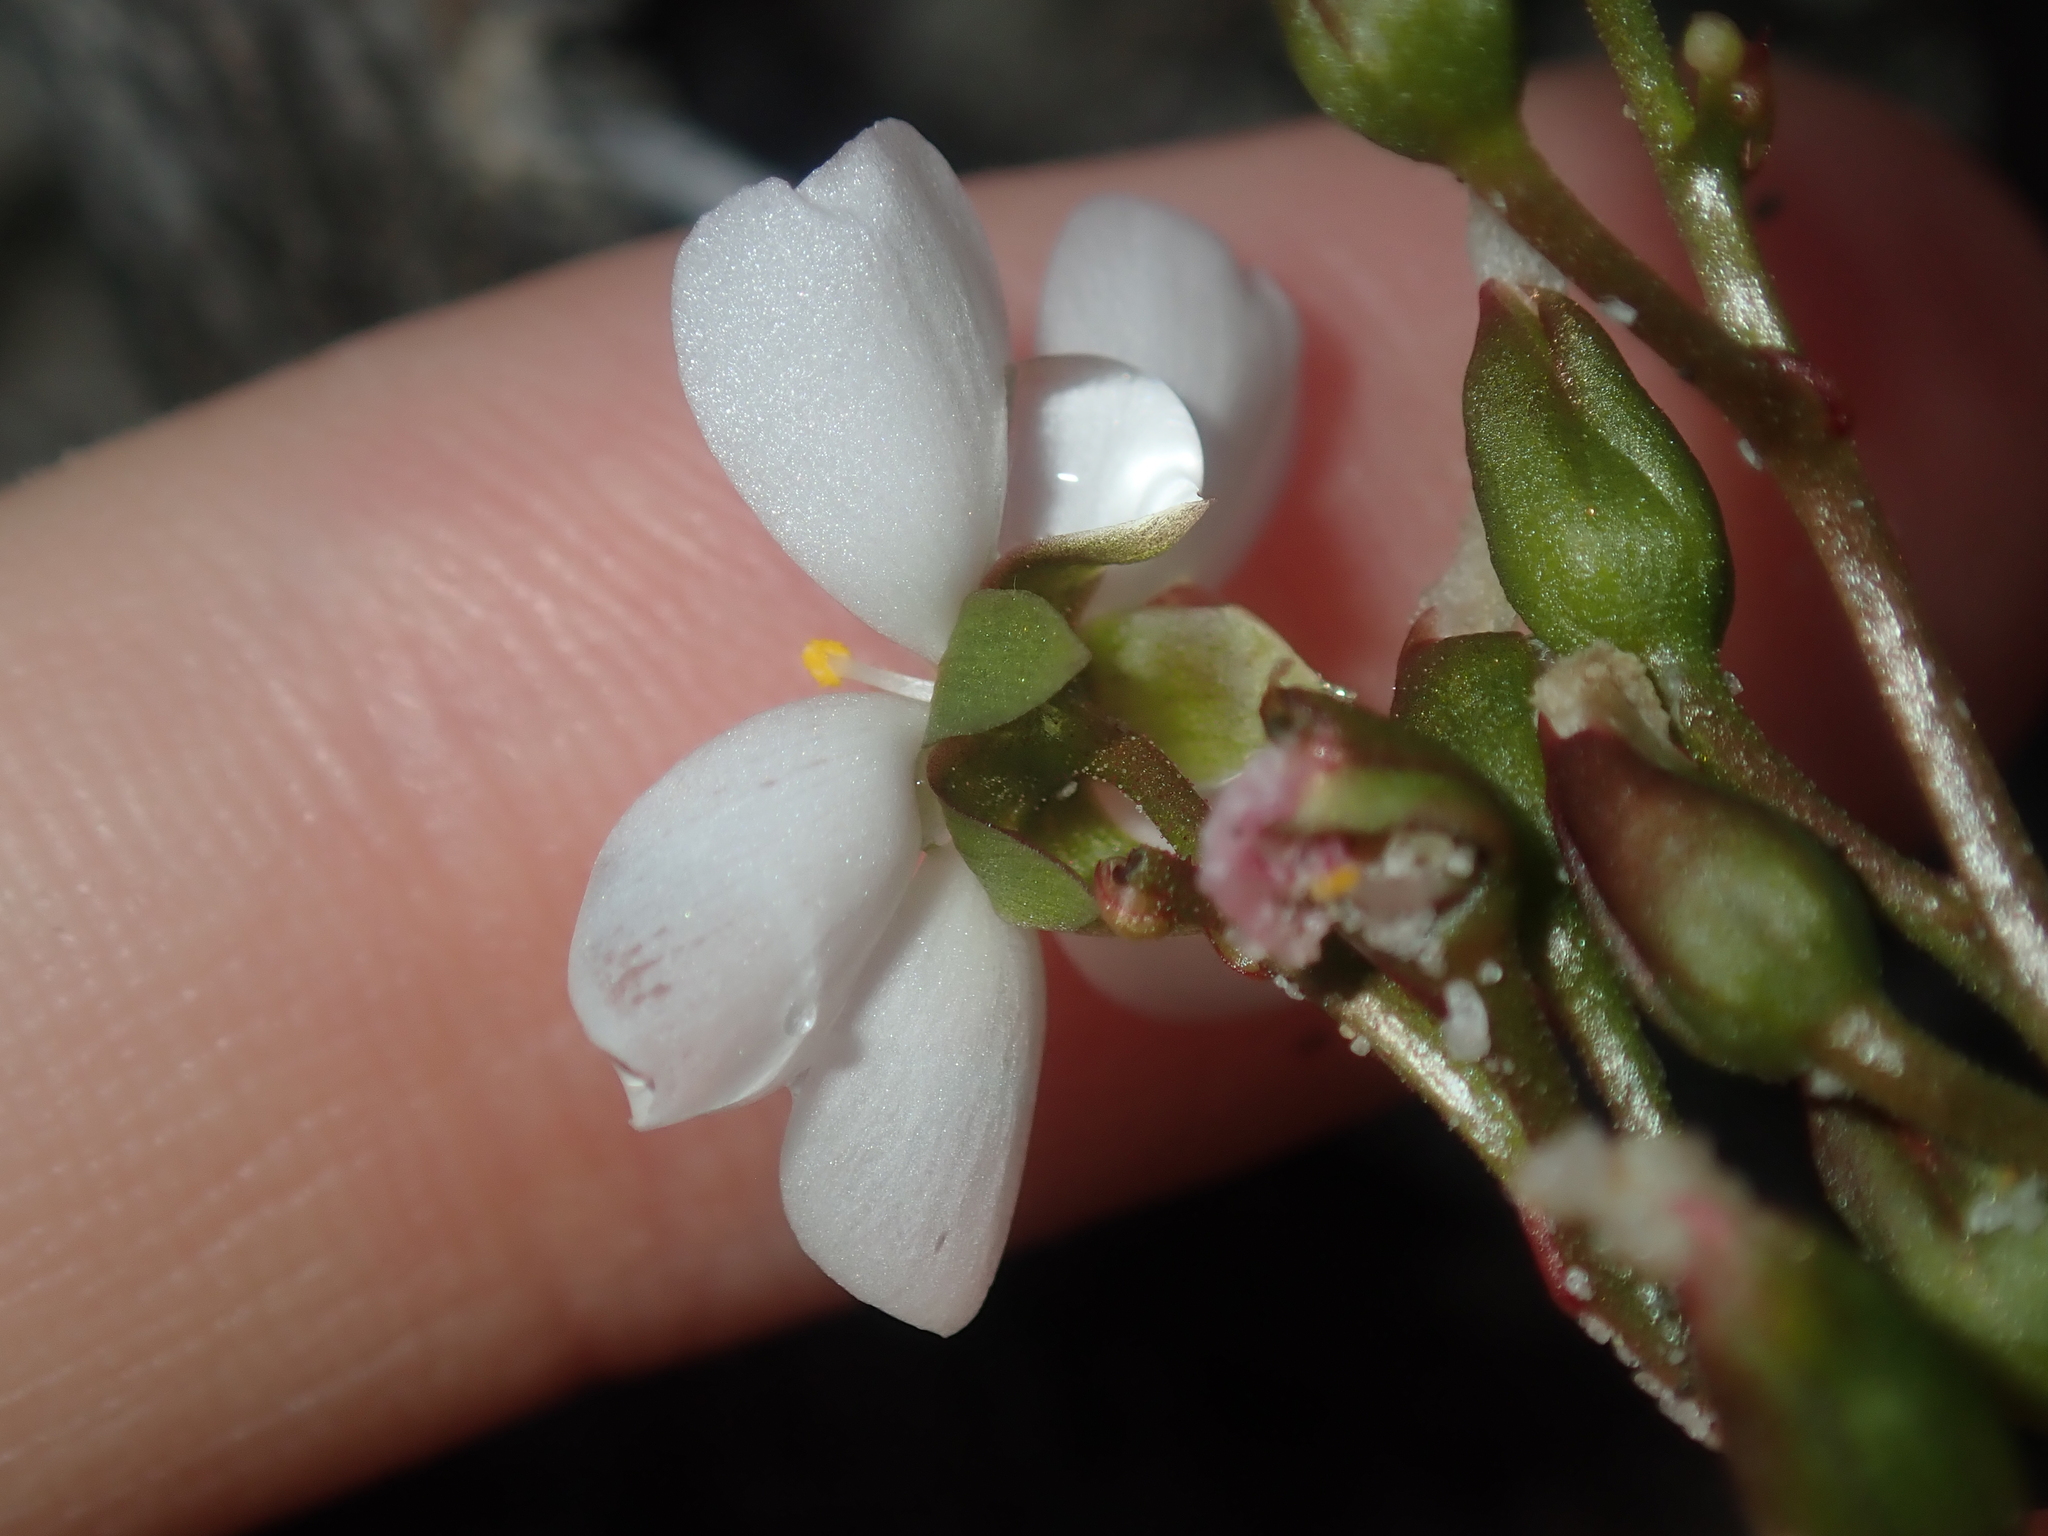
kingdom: Plantae
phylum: Tracheophyta
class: Magnoliopsida
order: Caryophyllales
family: Droseraceae
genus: Drosera
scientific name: Drosera stolonifera
